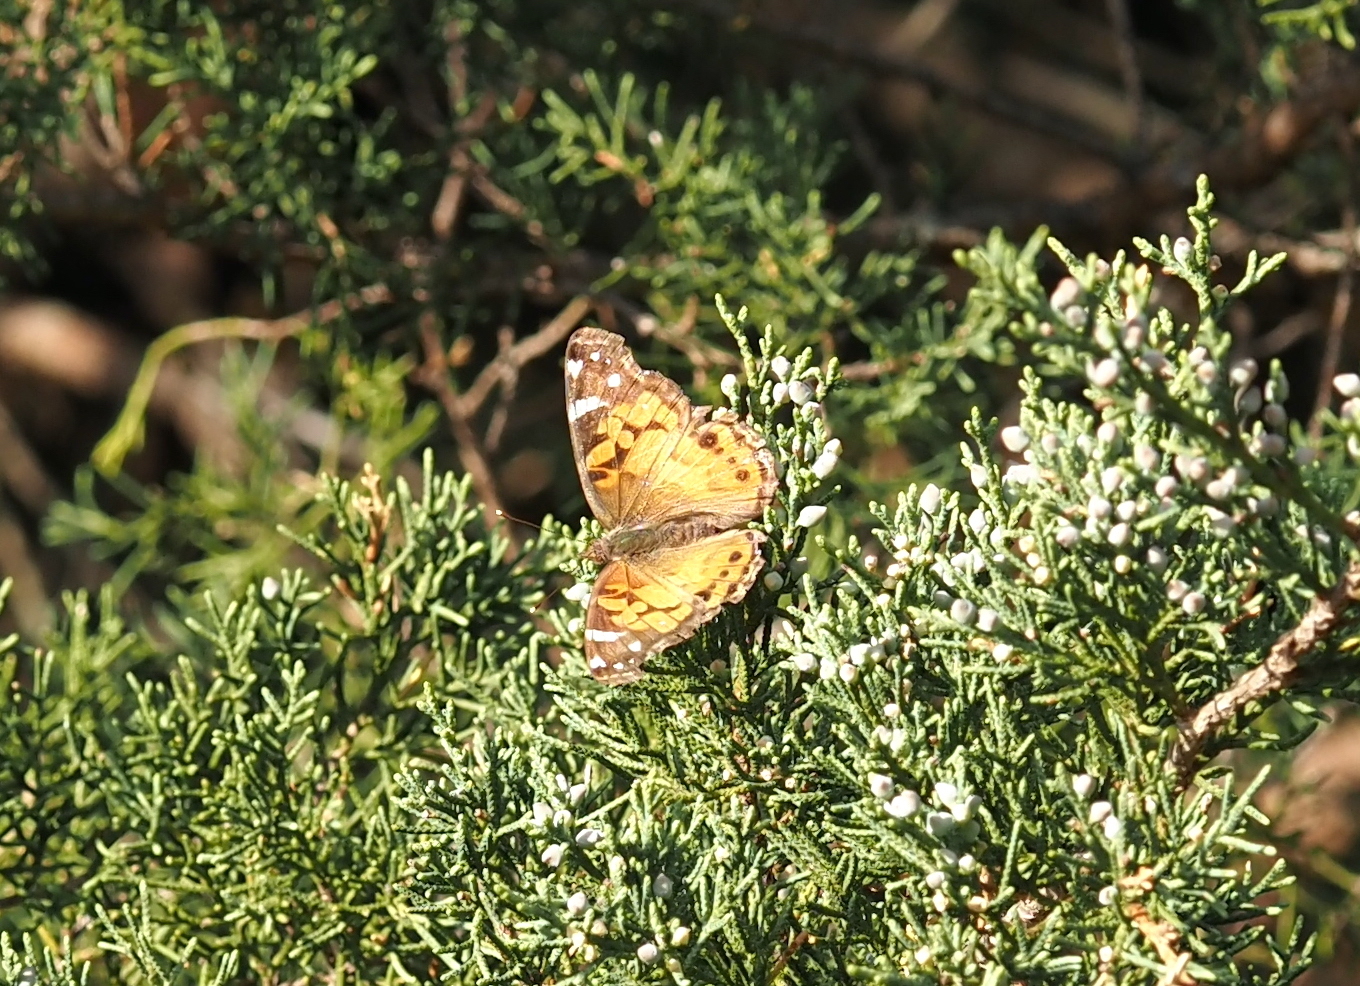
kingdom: Animalia
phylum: Arthropoda
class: Insecta
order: Lepidoptera
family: Nymphalidae
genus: Vanessa
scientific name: Vanessa virginiensis
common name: American lady
